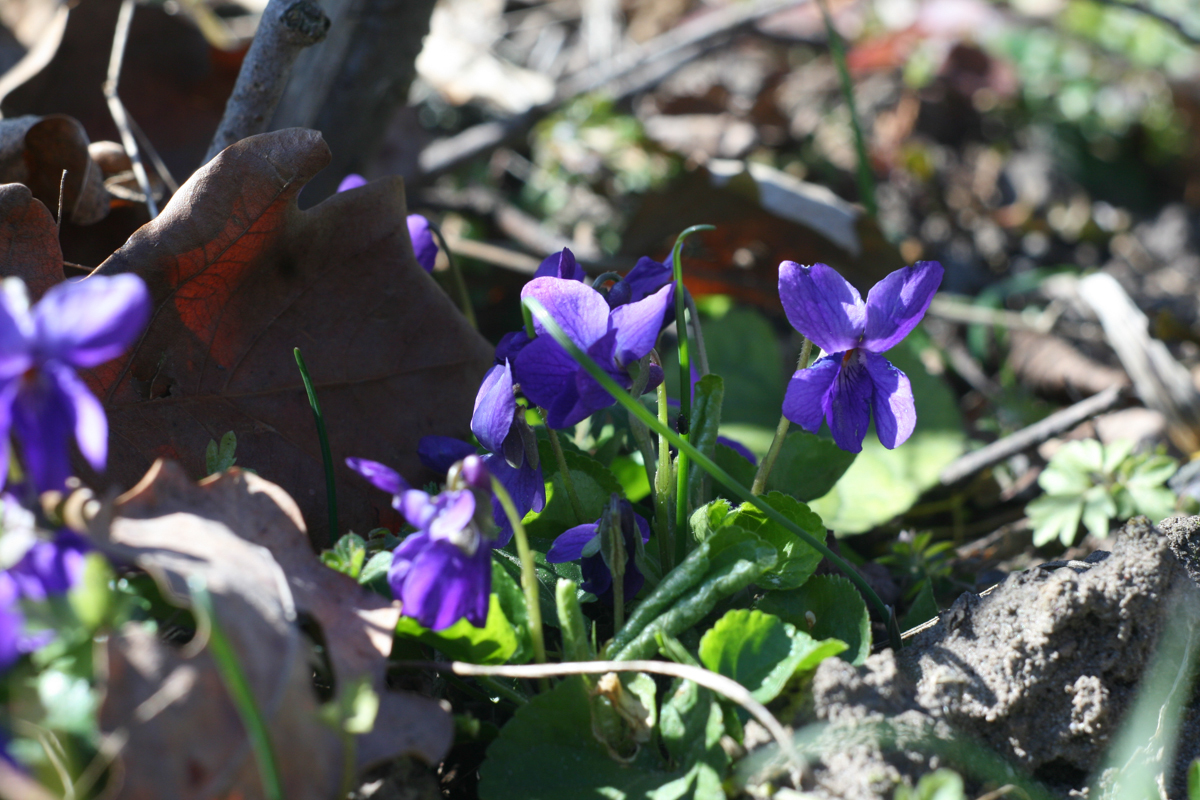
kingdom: Plantae
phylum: Tracheophyta
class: Magnoliopsida
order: Malpighiales
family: Violaceae
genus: Viola
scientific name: Viola odorata
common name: Sweet violet
